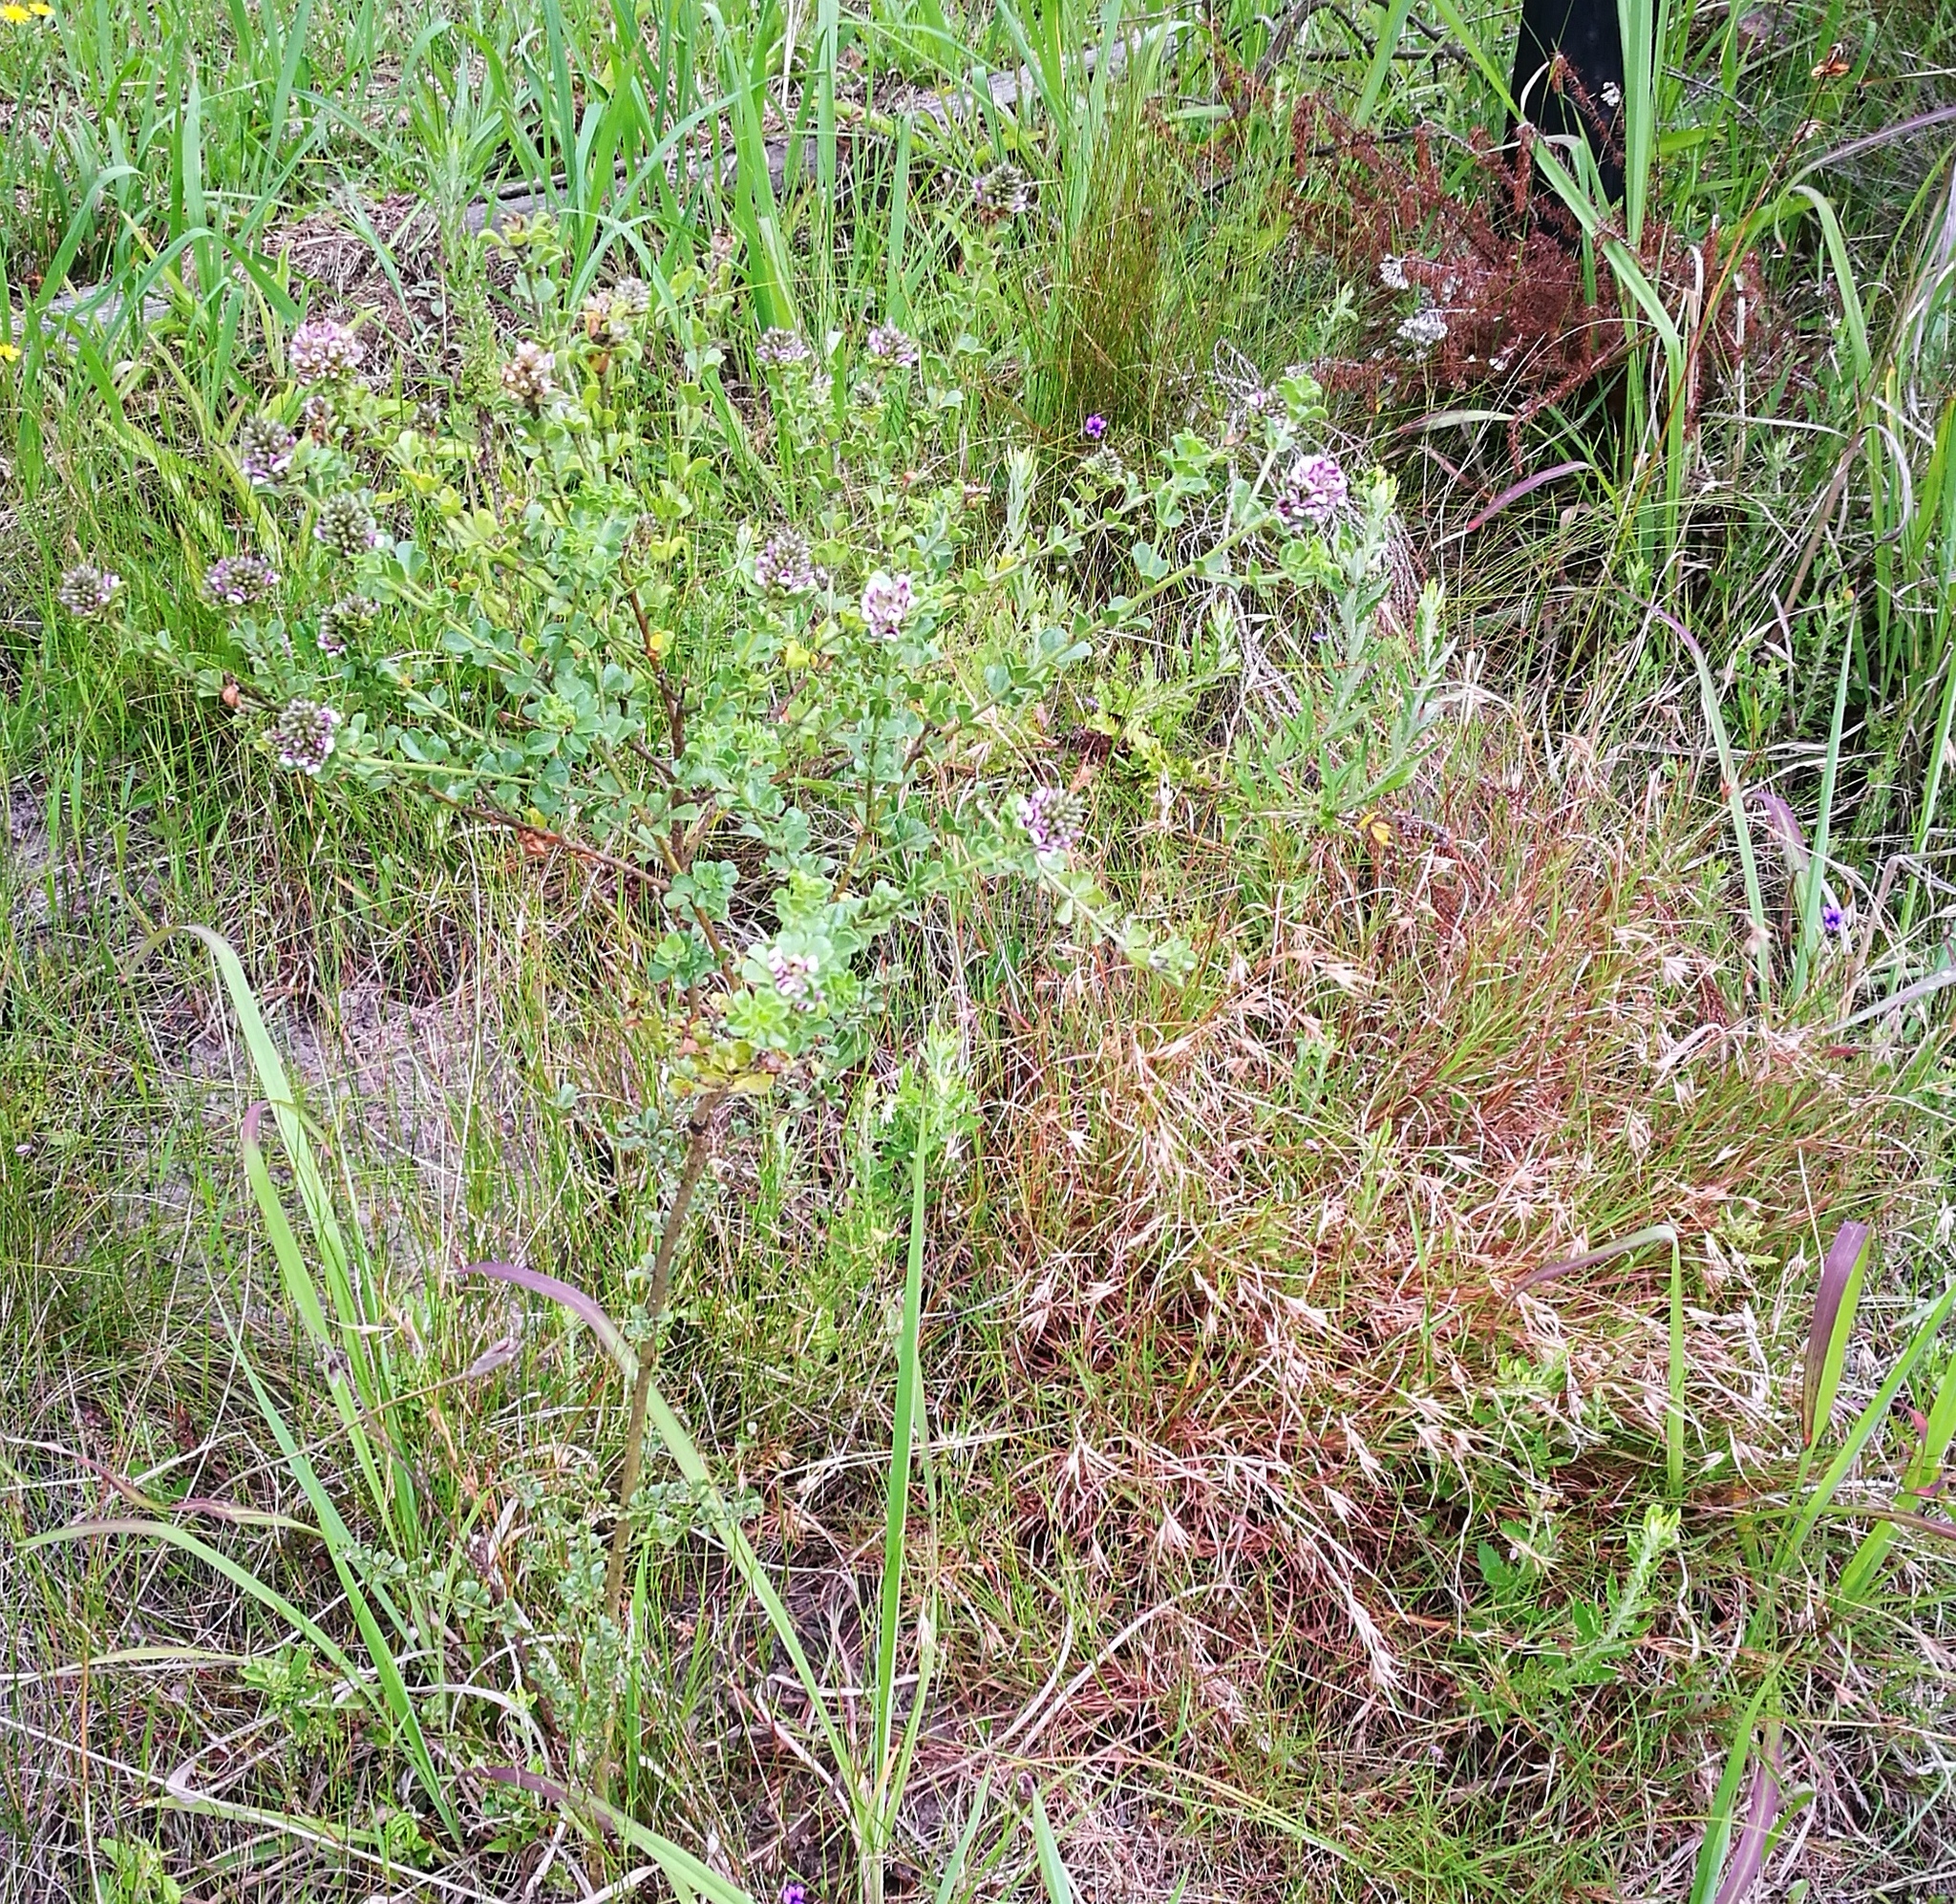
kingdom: Plantae
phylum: Tracheophyta
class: Magnoliopsida
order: Fabales
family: Fabaceae
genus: Psoralea
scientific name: Psoralea stachyera
